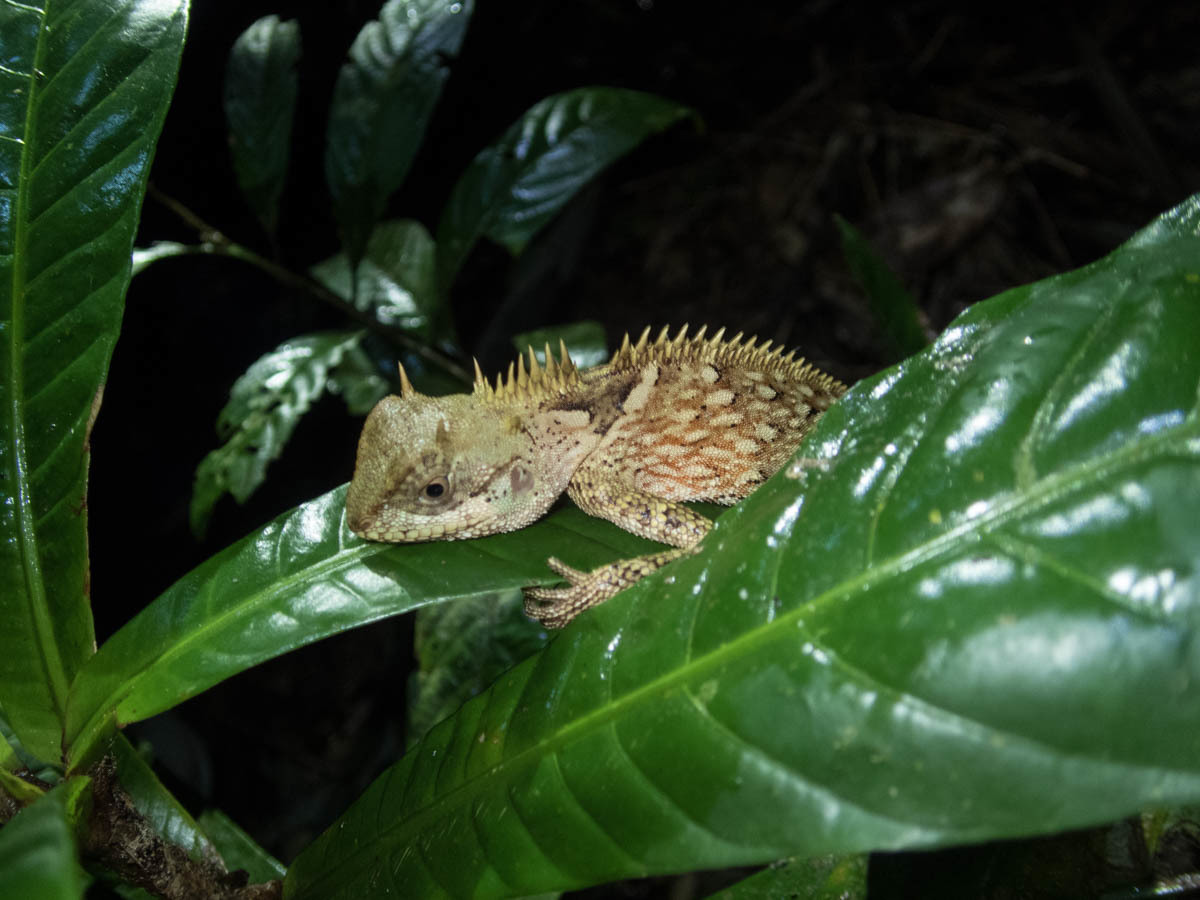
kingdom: Animalia
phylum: Chordata
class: Squamata
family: Agamidae
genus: Acanthosaura
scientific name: Acanthosaura cardamomensis
